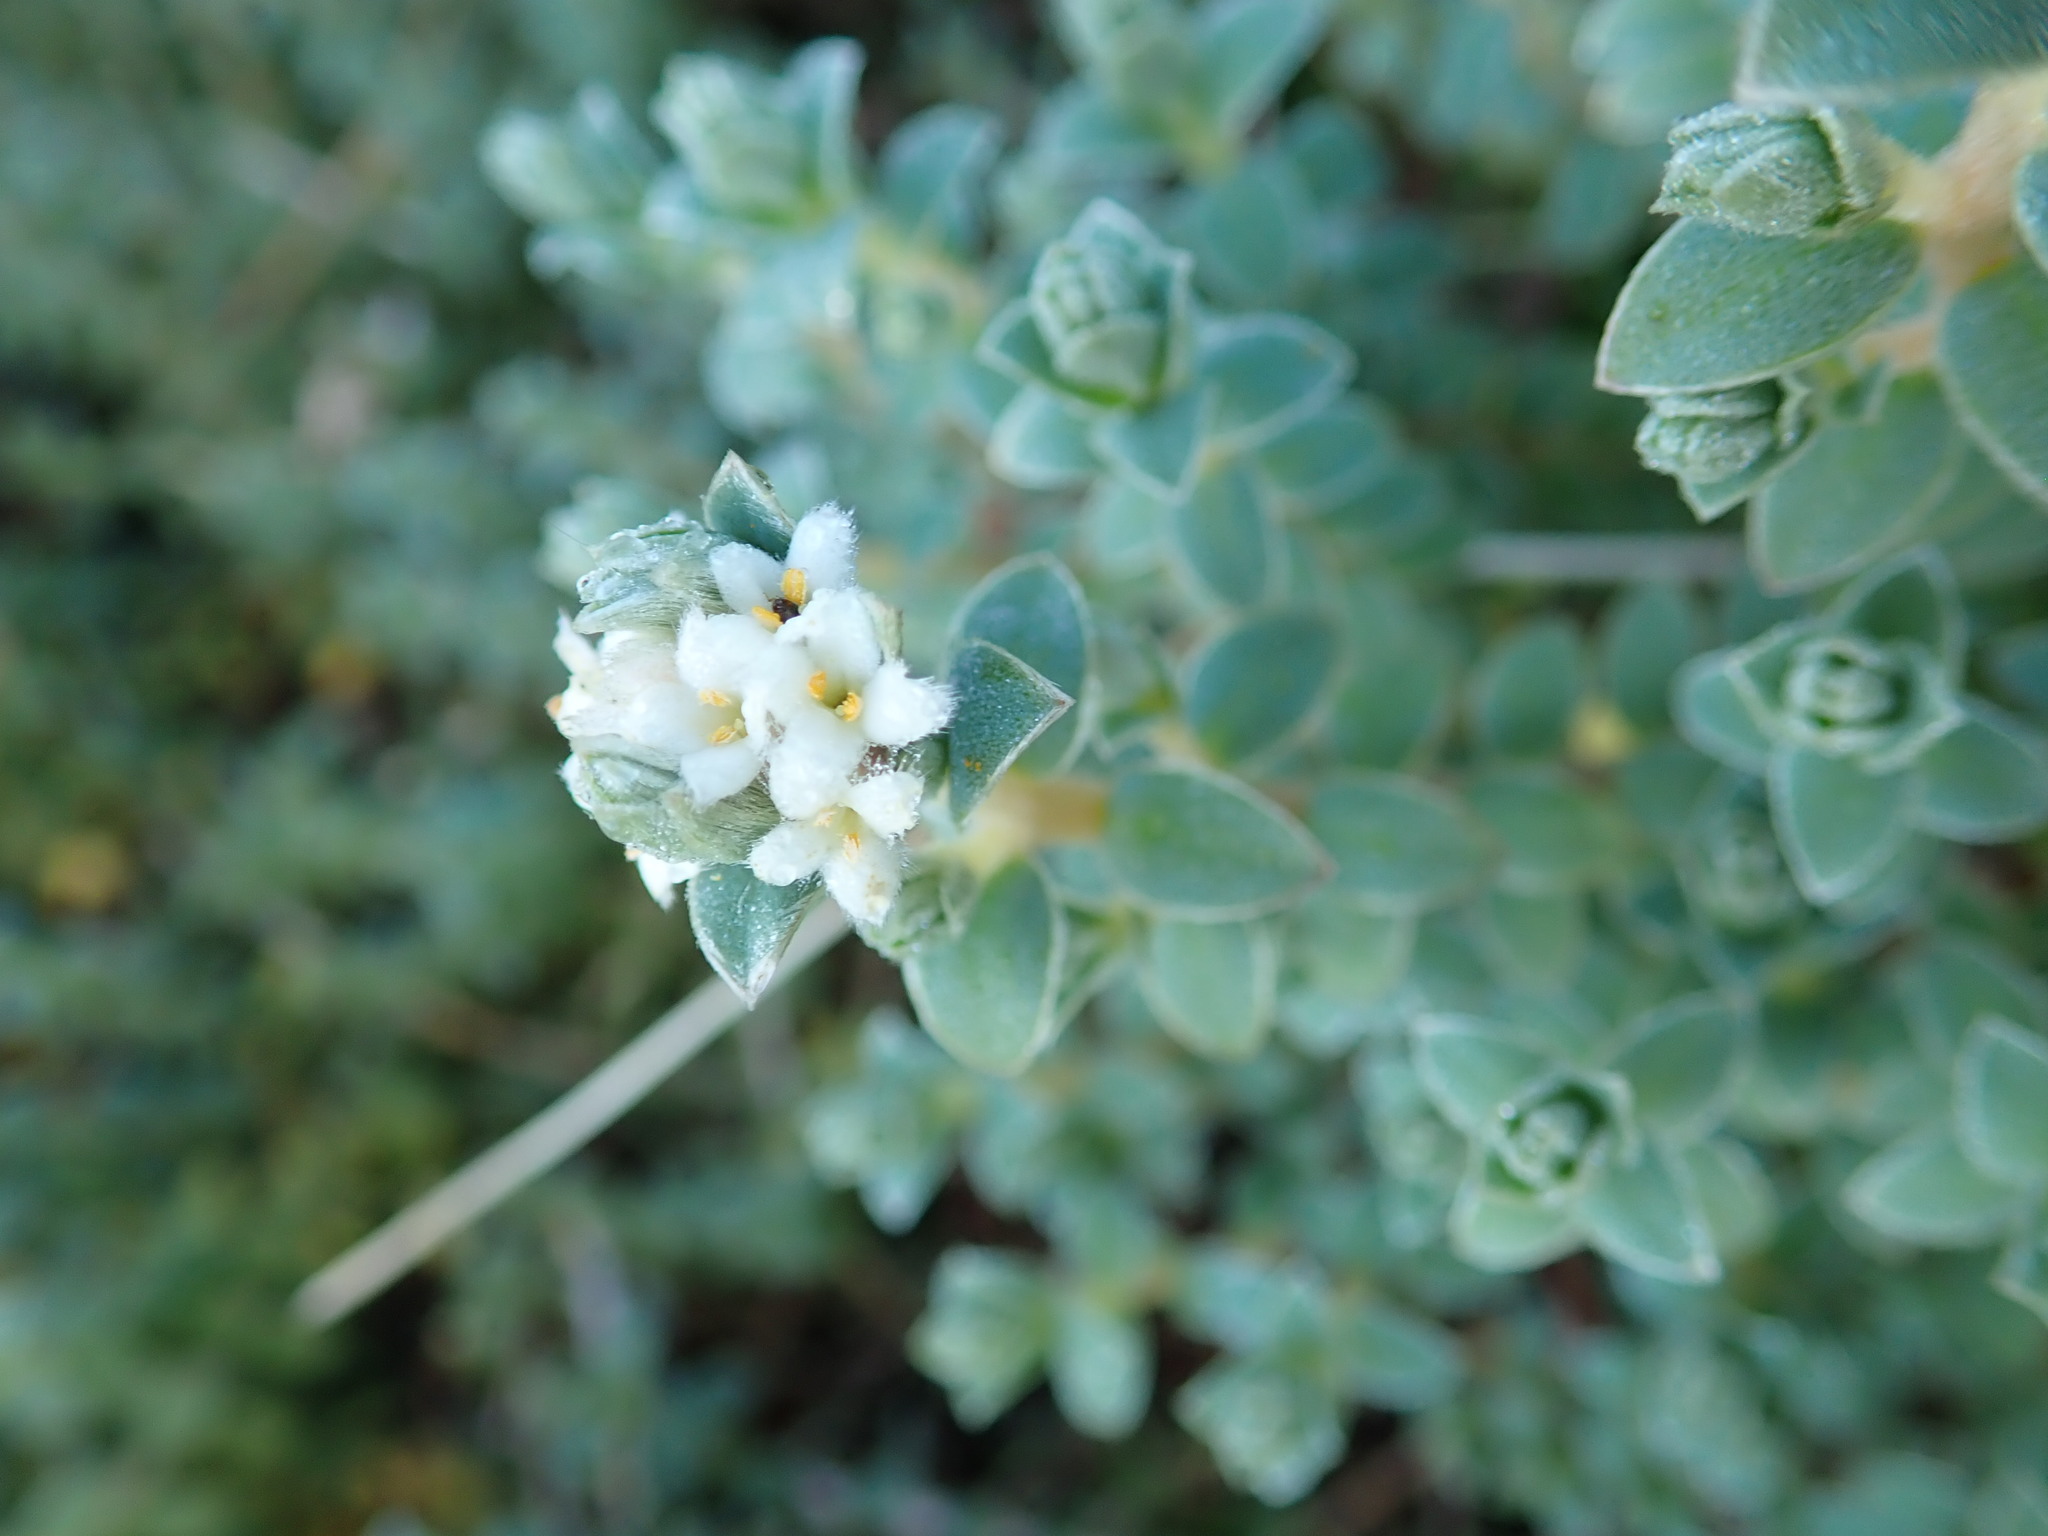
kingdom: Plantae
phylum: Tracheophyta
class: Magnoliopsida
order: Malvales
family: Thymelaeaceae
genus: Pimelea
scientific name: Pimelea villosa
